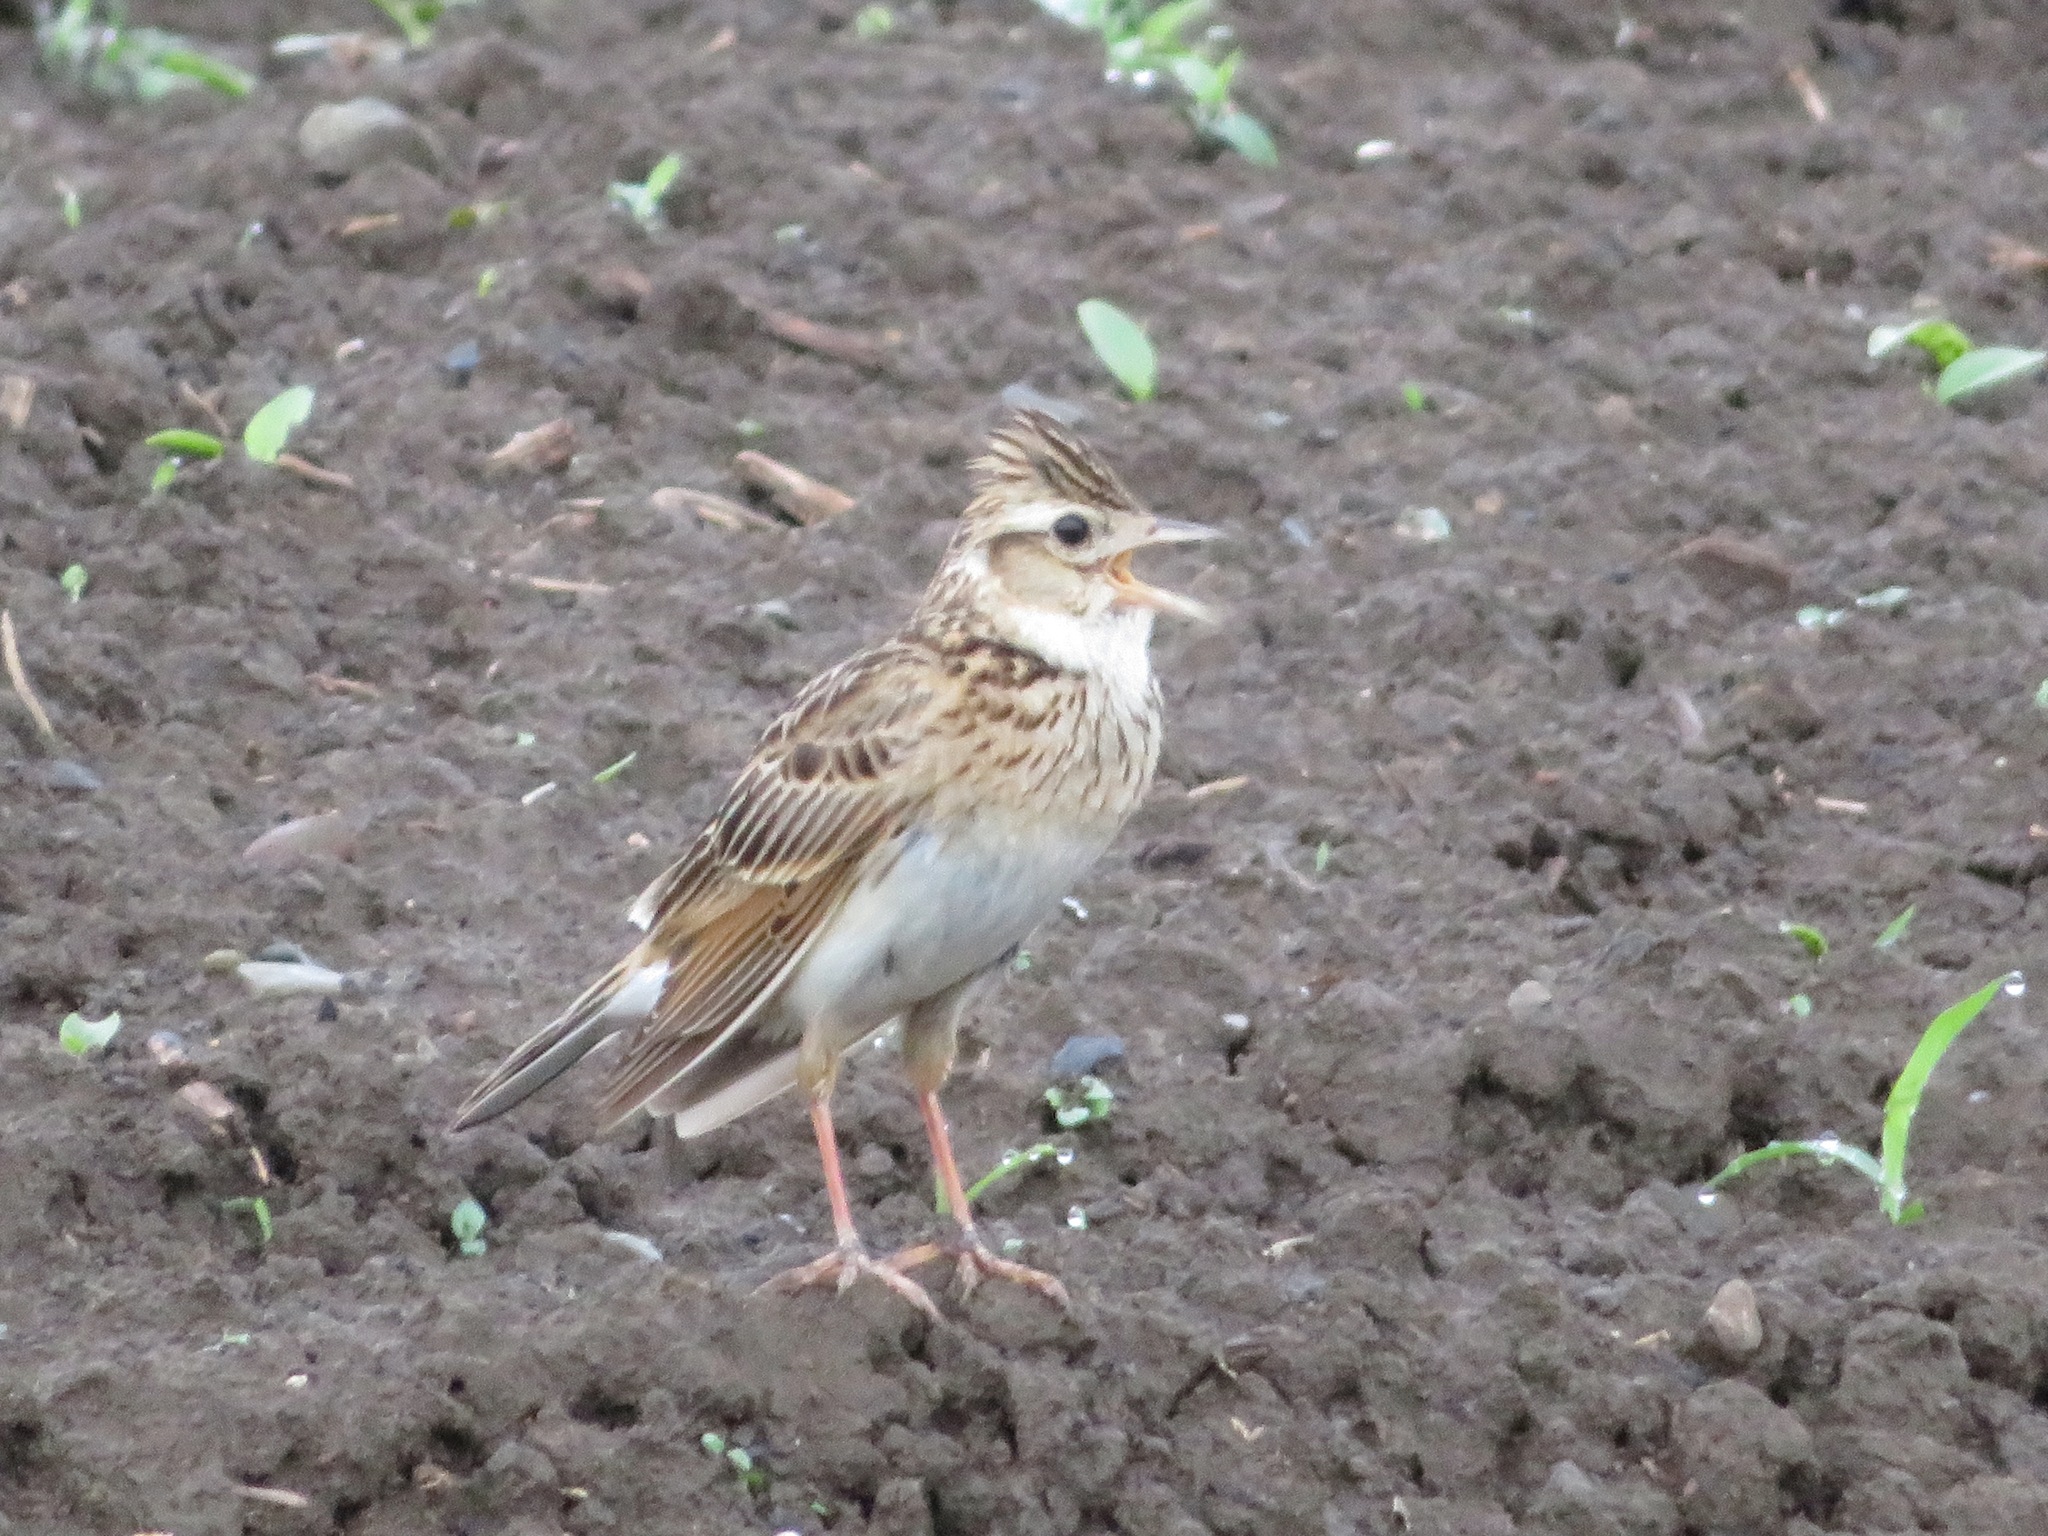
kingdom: Animalia
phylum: Chordata
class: Aves
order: Passeriformes
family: Alaudidae
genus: Alauda
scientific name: Alauda arvensis
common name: Eurasian skylark
